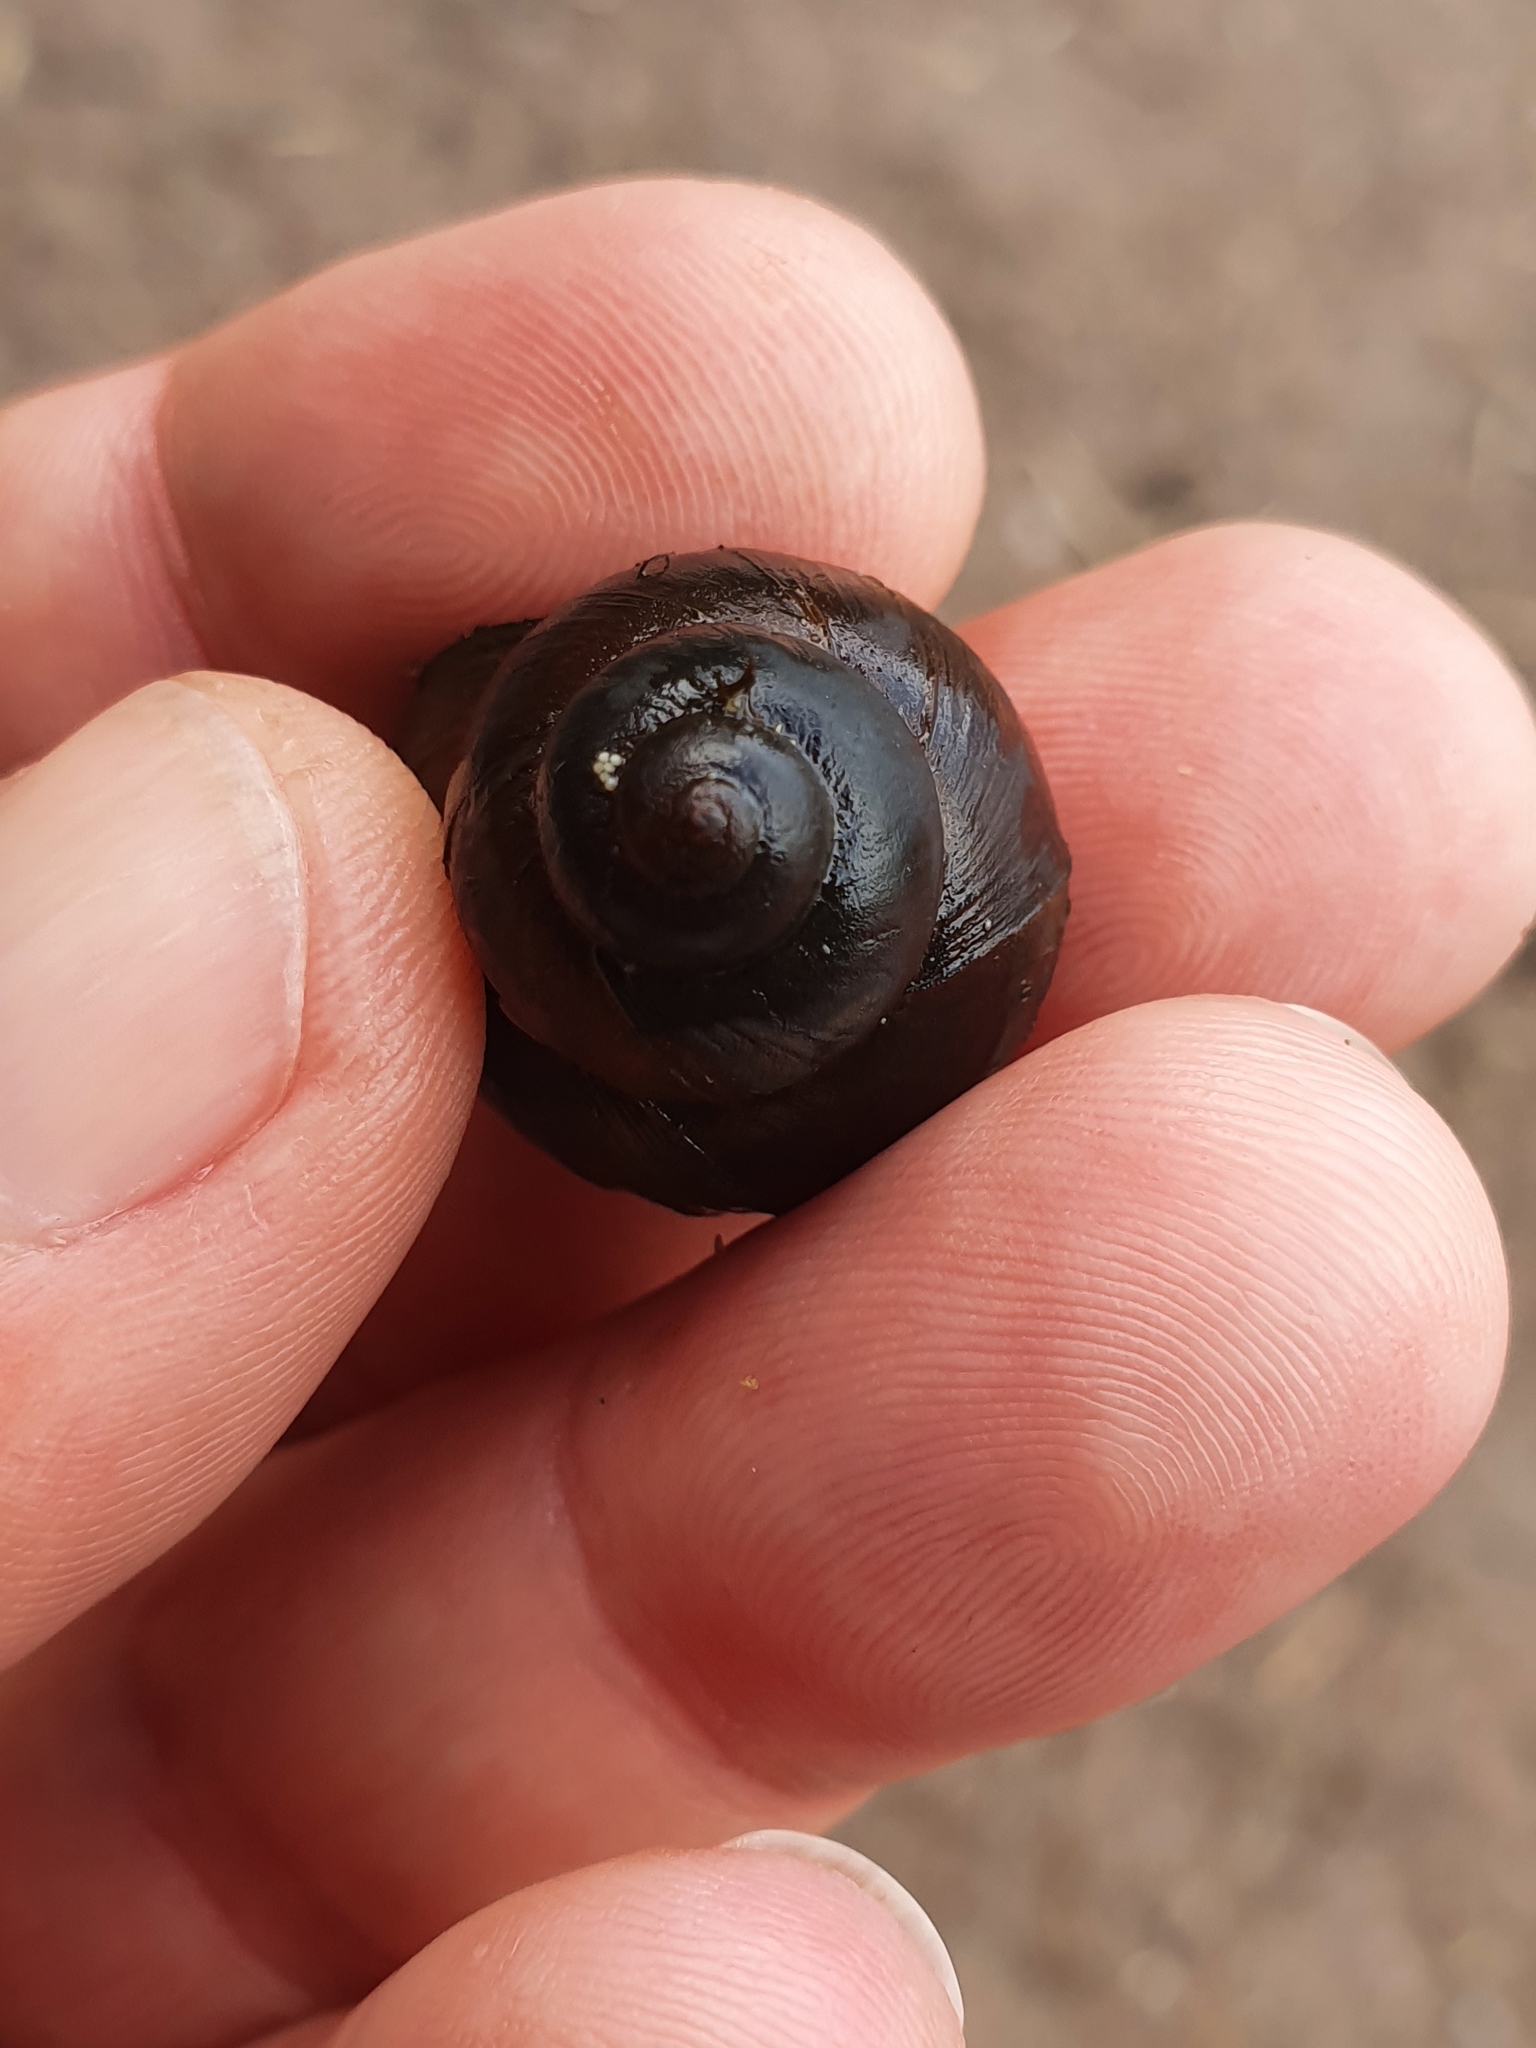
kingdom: Animalia
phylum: Mollusca
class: Gastropoda
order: Architaenioglossa
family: Viviparidae
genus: Viviparus
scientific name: Viviparus viviparus
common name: River snail
